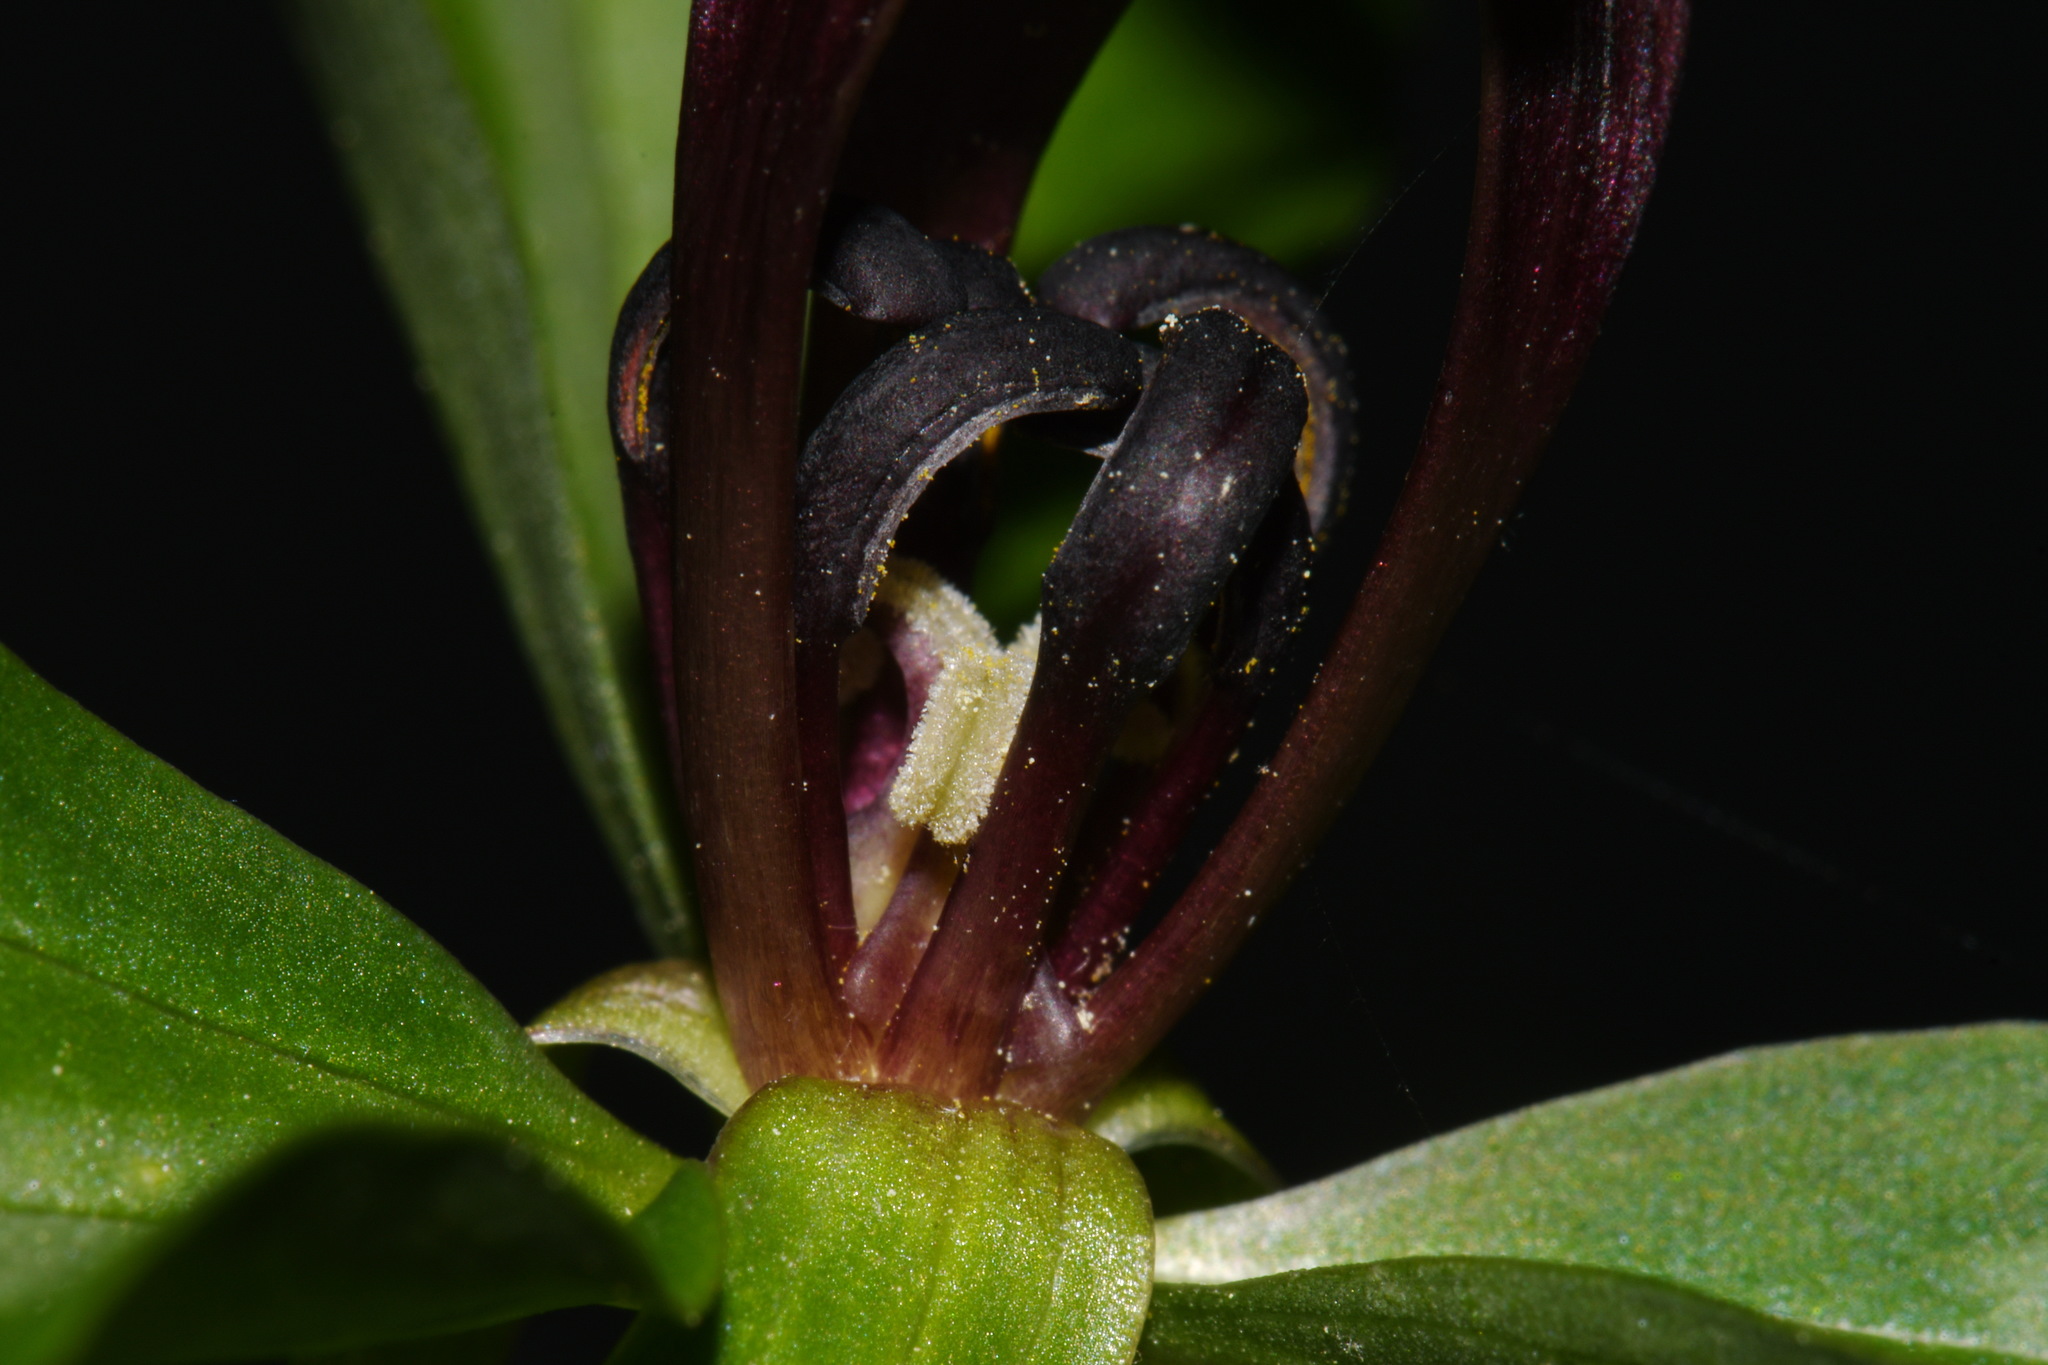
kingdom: Plantae
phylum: Tracheophyta
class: Liliopsida
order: Liliales
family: Melanthiaceae
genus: Trillium
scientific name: Trillium lancifolium
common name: Lance-leaved trillium
